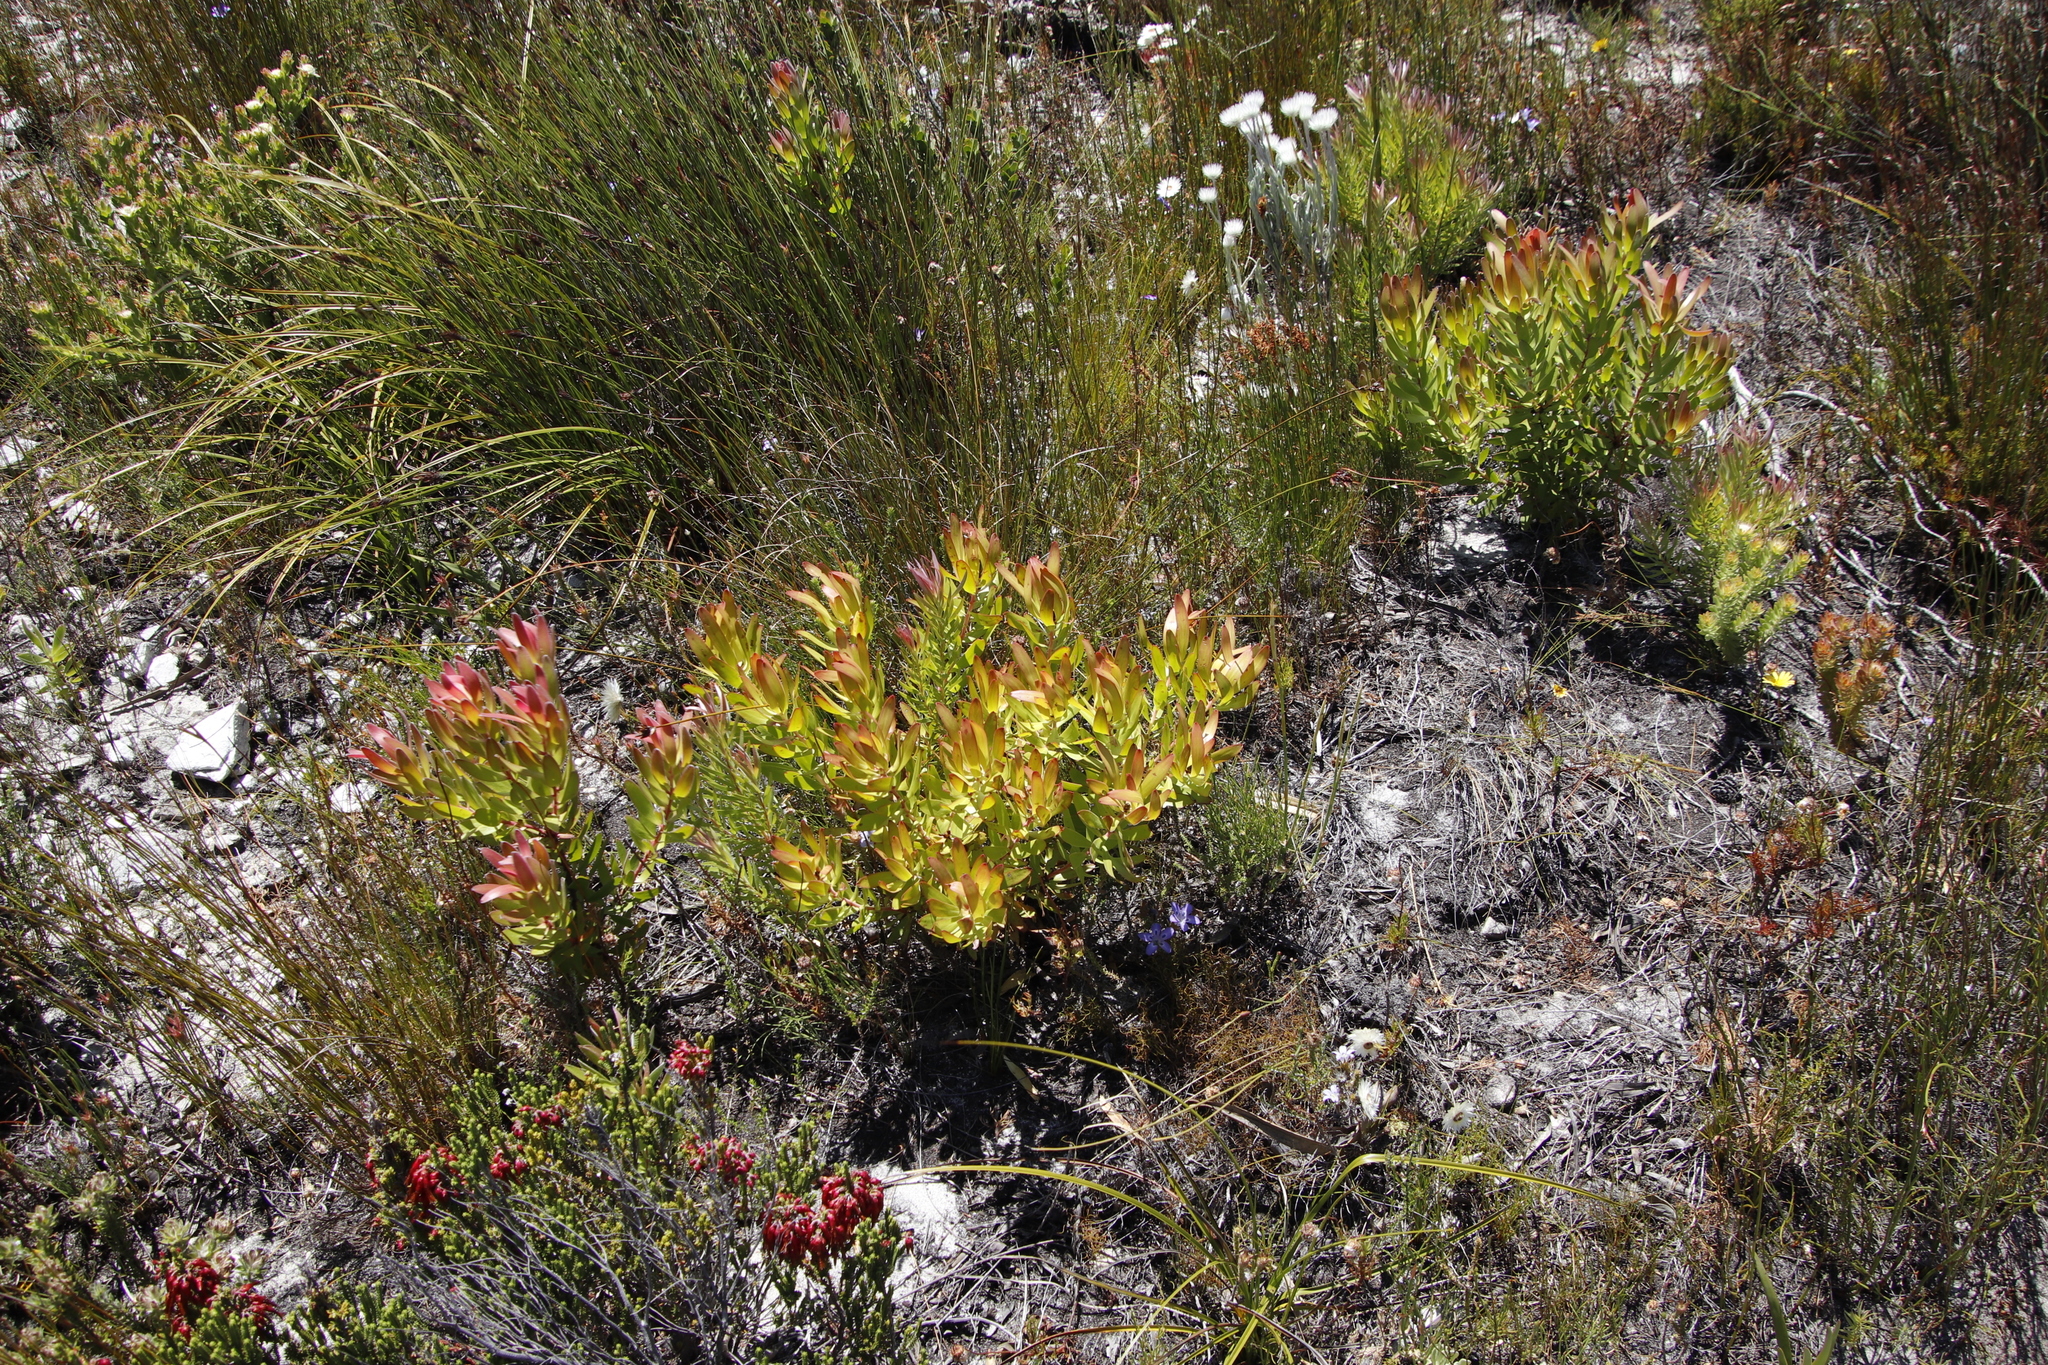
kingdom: Plantae
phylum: Tracheophyta
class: Magnoliopsida
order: Proteales
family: Proteaceae
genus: Leucadendron
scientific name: Leucadendron sessile
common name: Western sunbush
